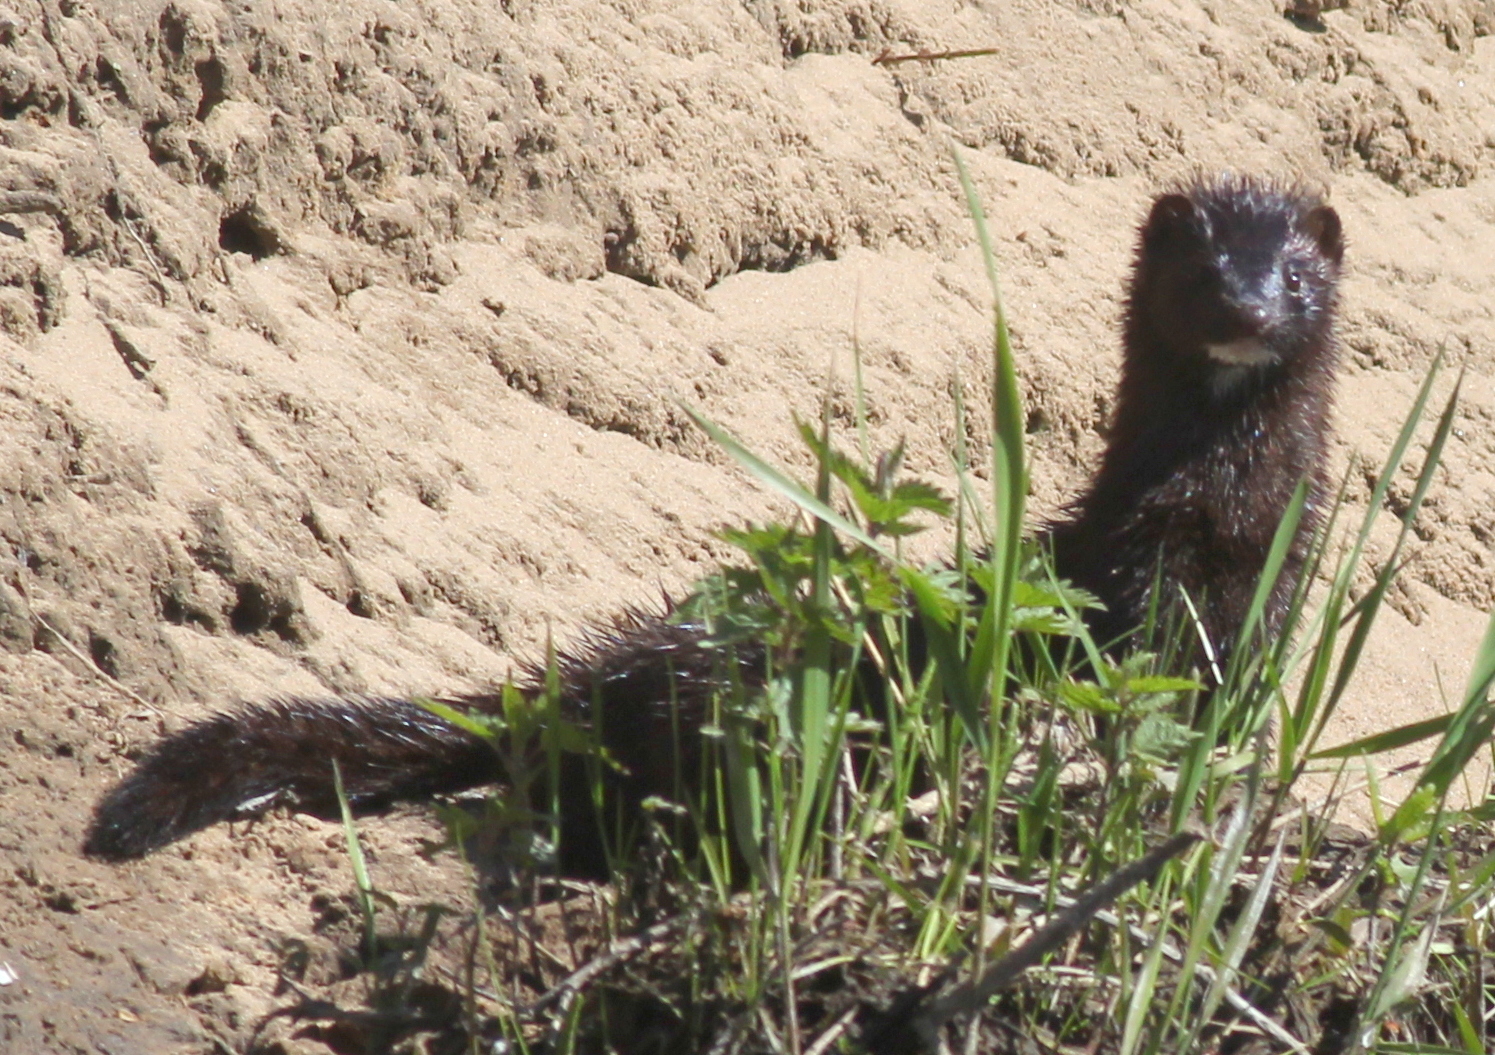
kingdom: Animalia
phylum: Chordata
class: Mammalia
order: Carnivora
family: Mustelidae
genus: Mustela
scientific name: Mustela
